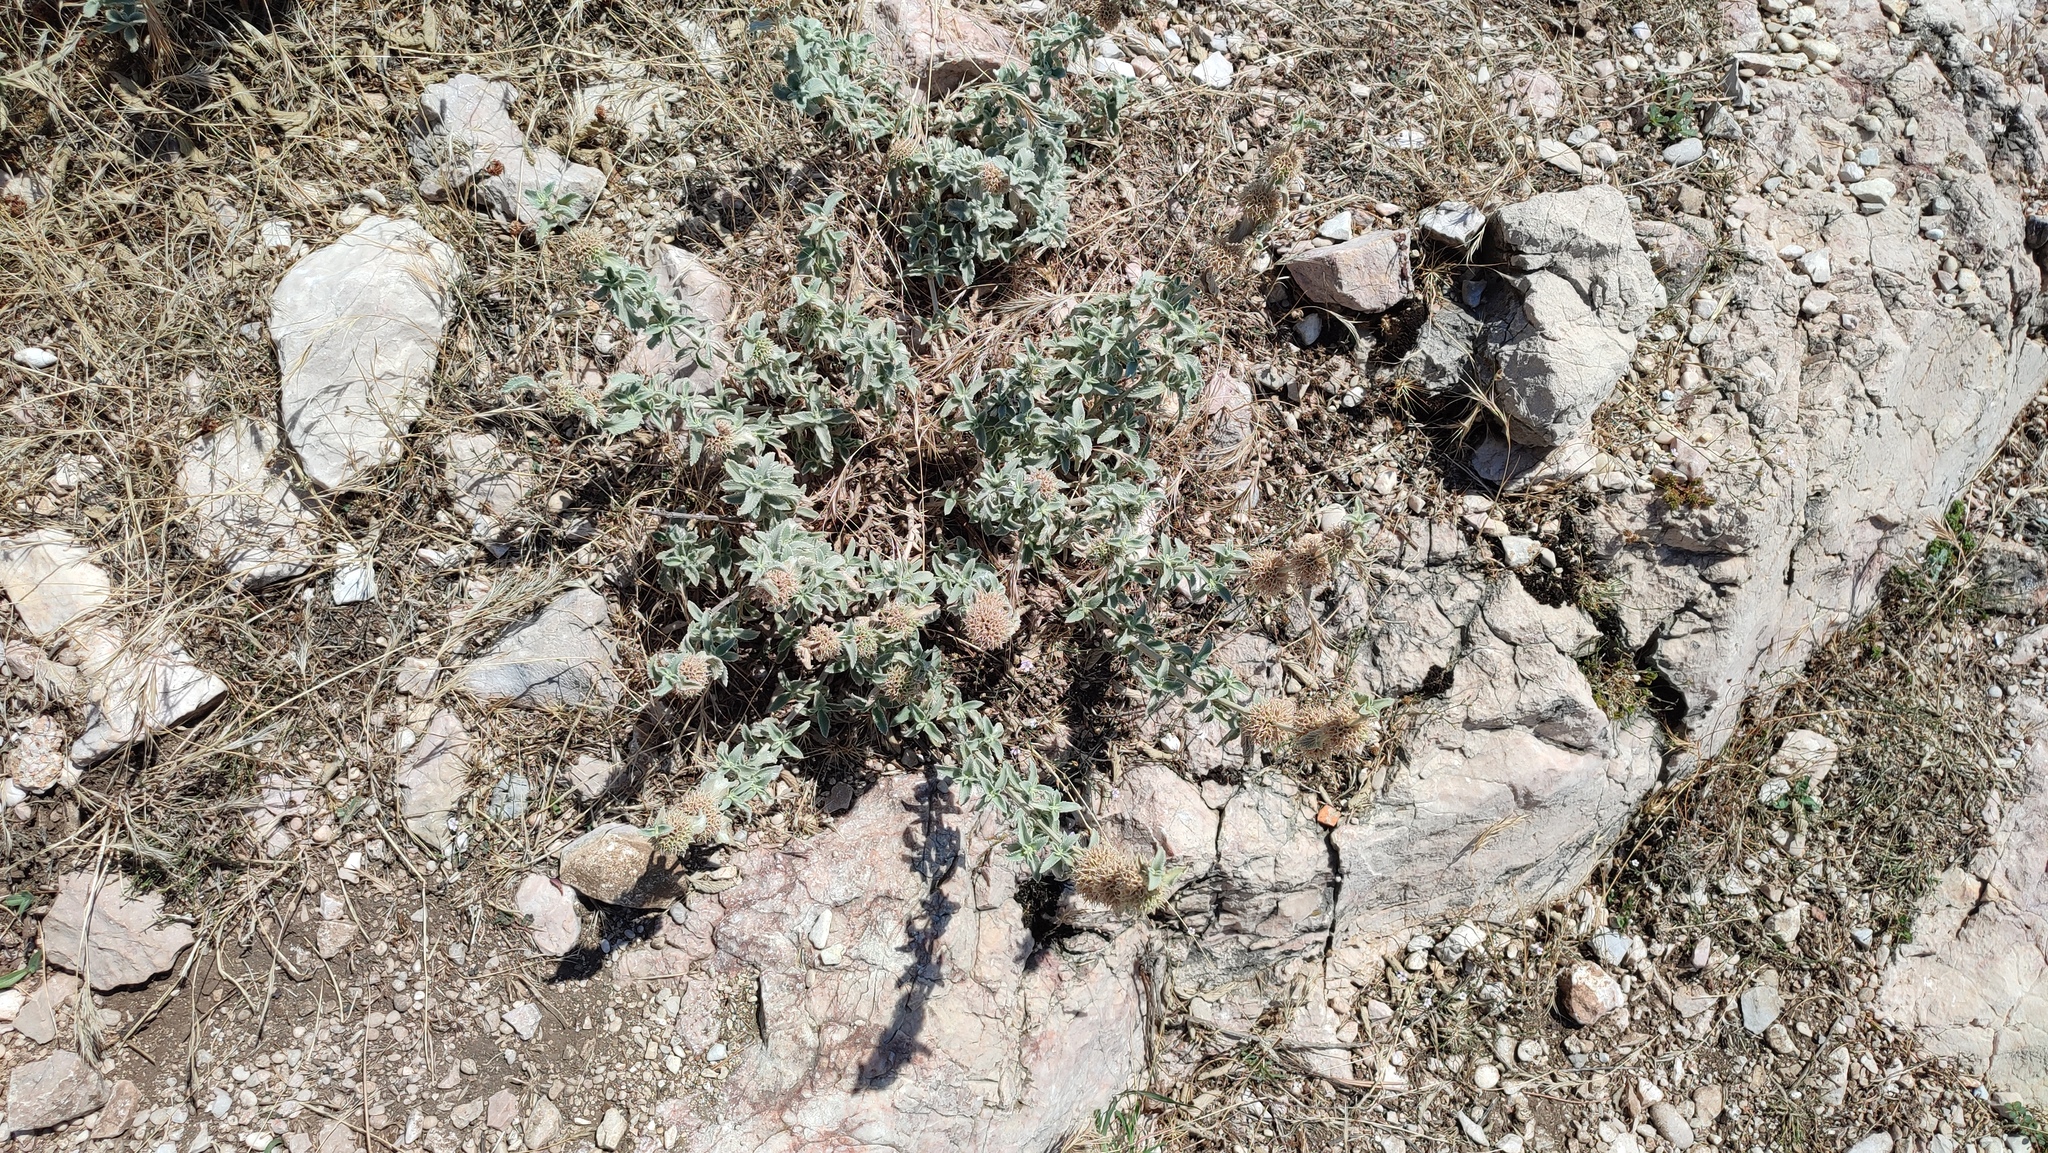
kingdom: Plantae
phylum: Tracheophyta
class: Magnoliopsida
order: Lamiales
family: Lamiaceae
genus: Marrubium
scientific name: Marrubium incanum
